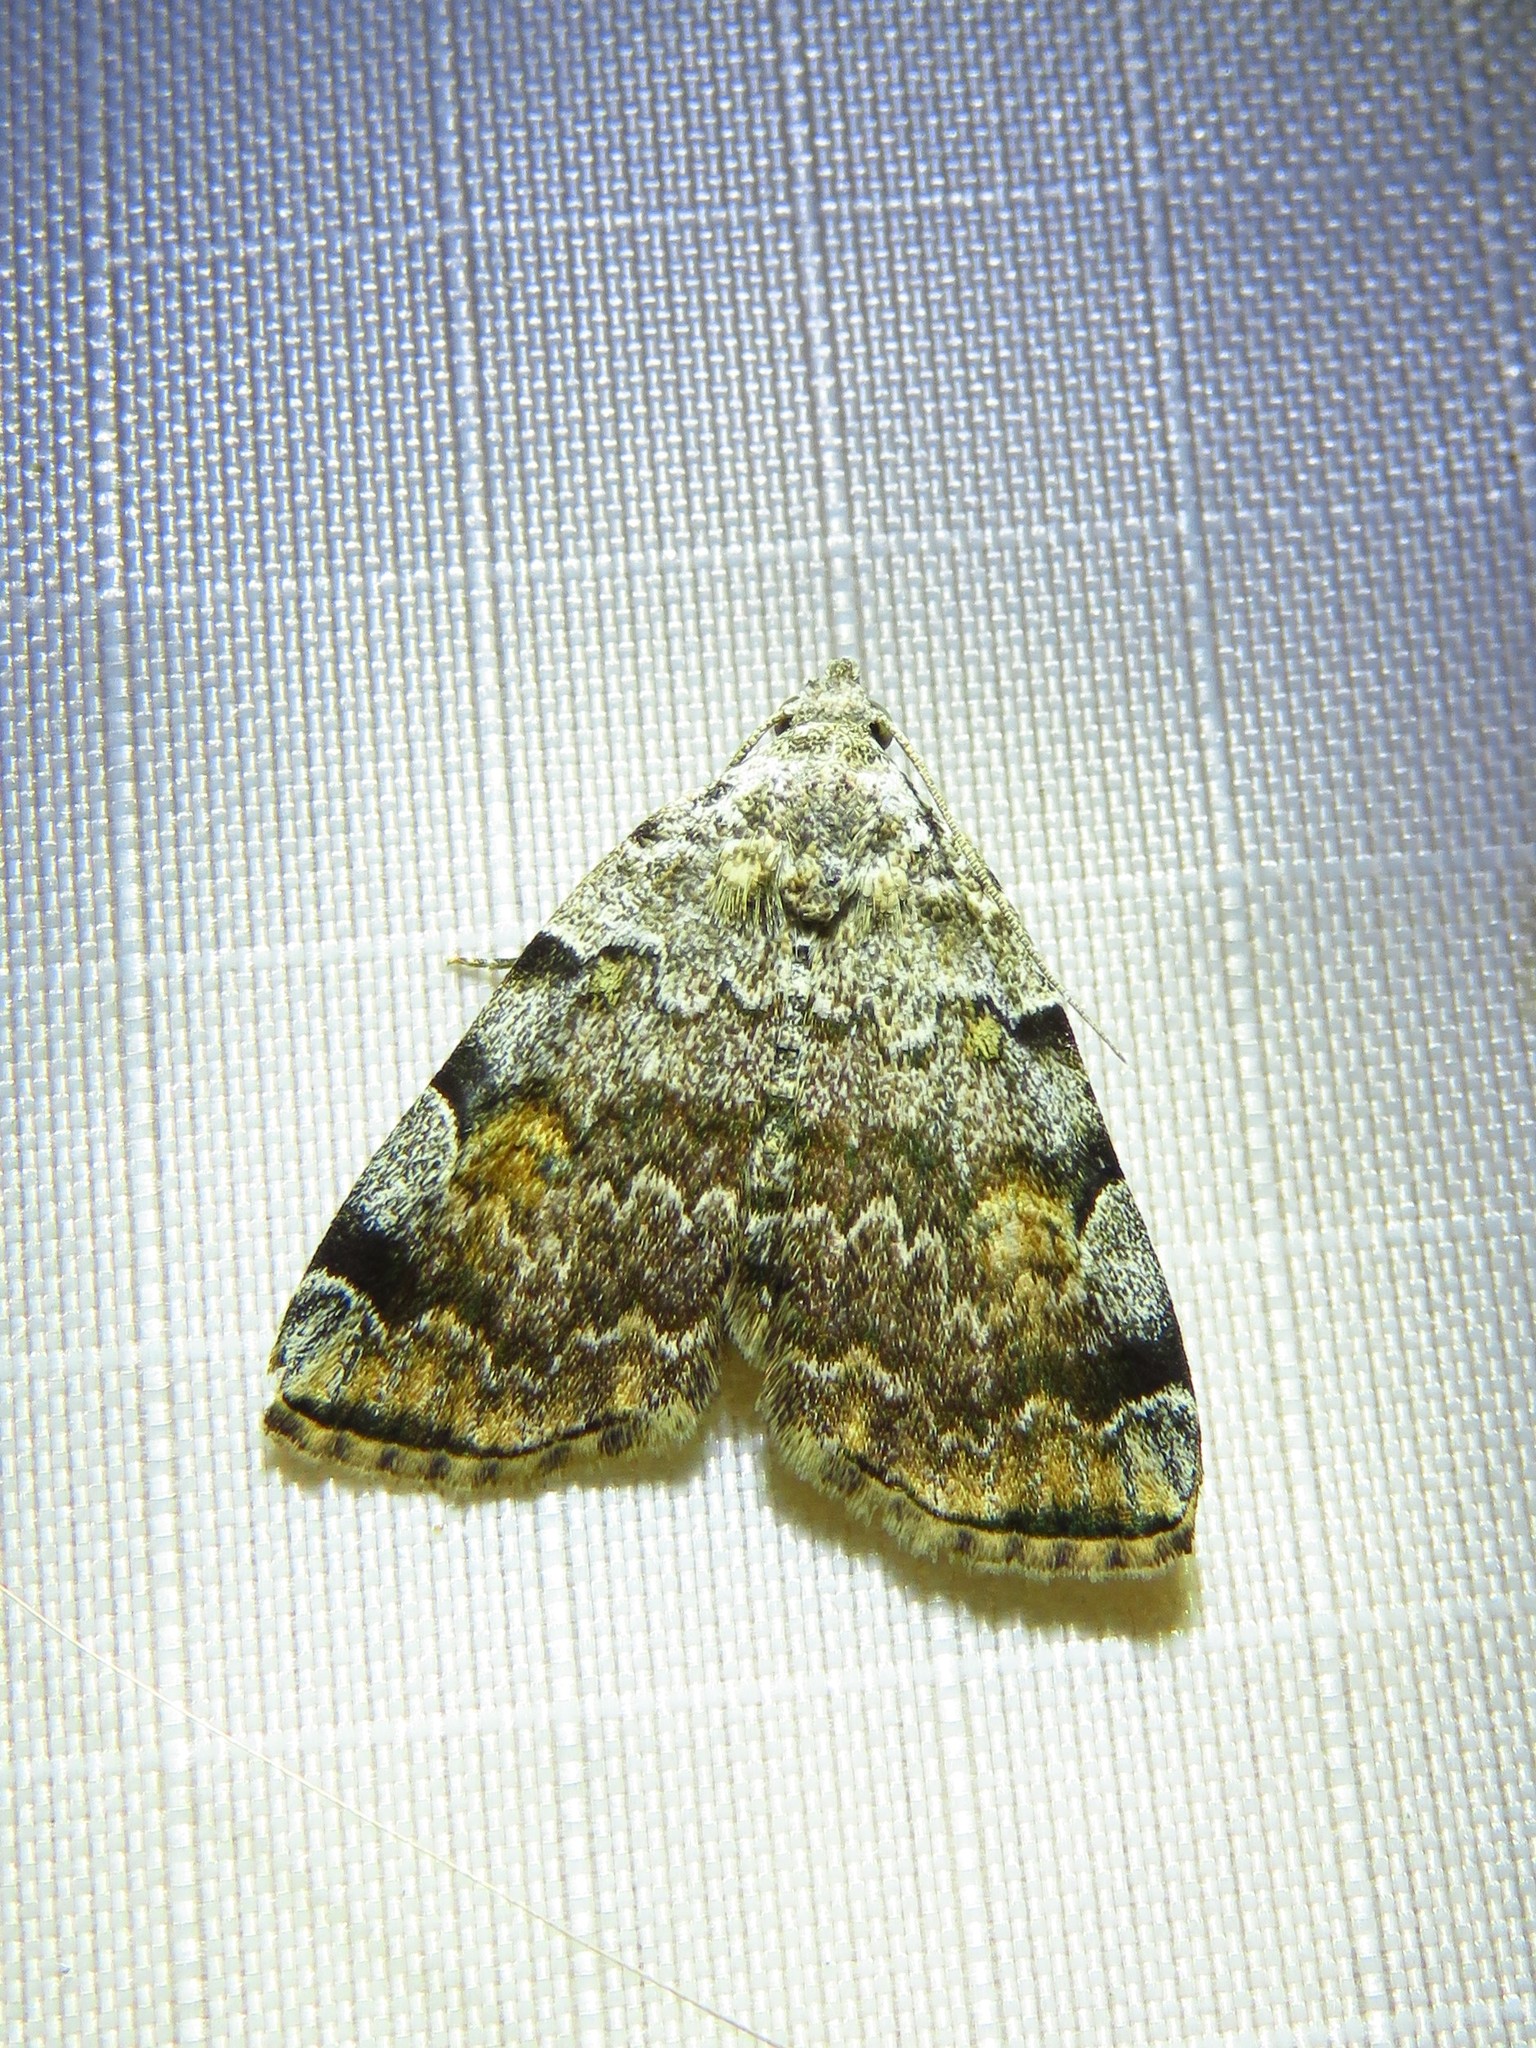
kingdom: Animalia
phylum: Arthropoda
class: Insecta
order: Lepidoptera
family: Erebidae
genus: Idia
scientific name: Idia americalis
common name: American idia moth
